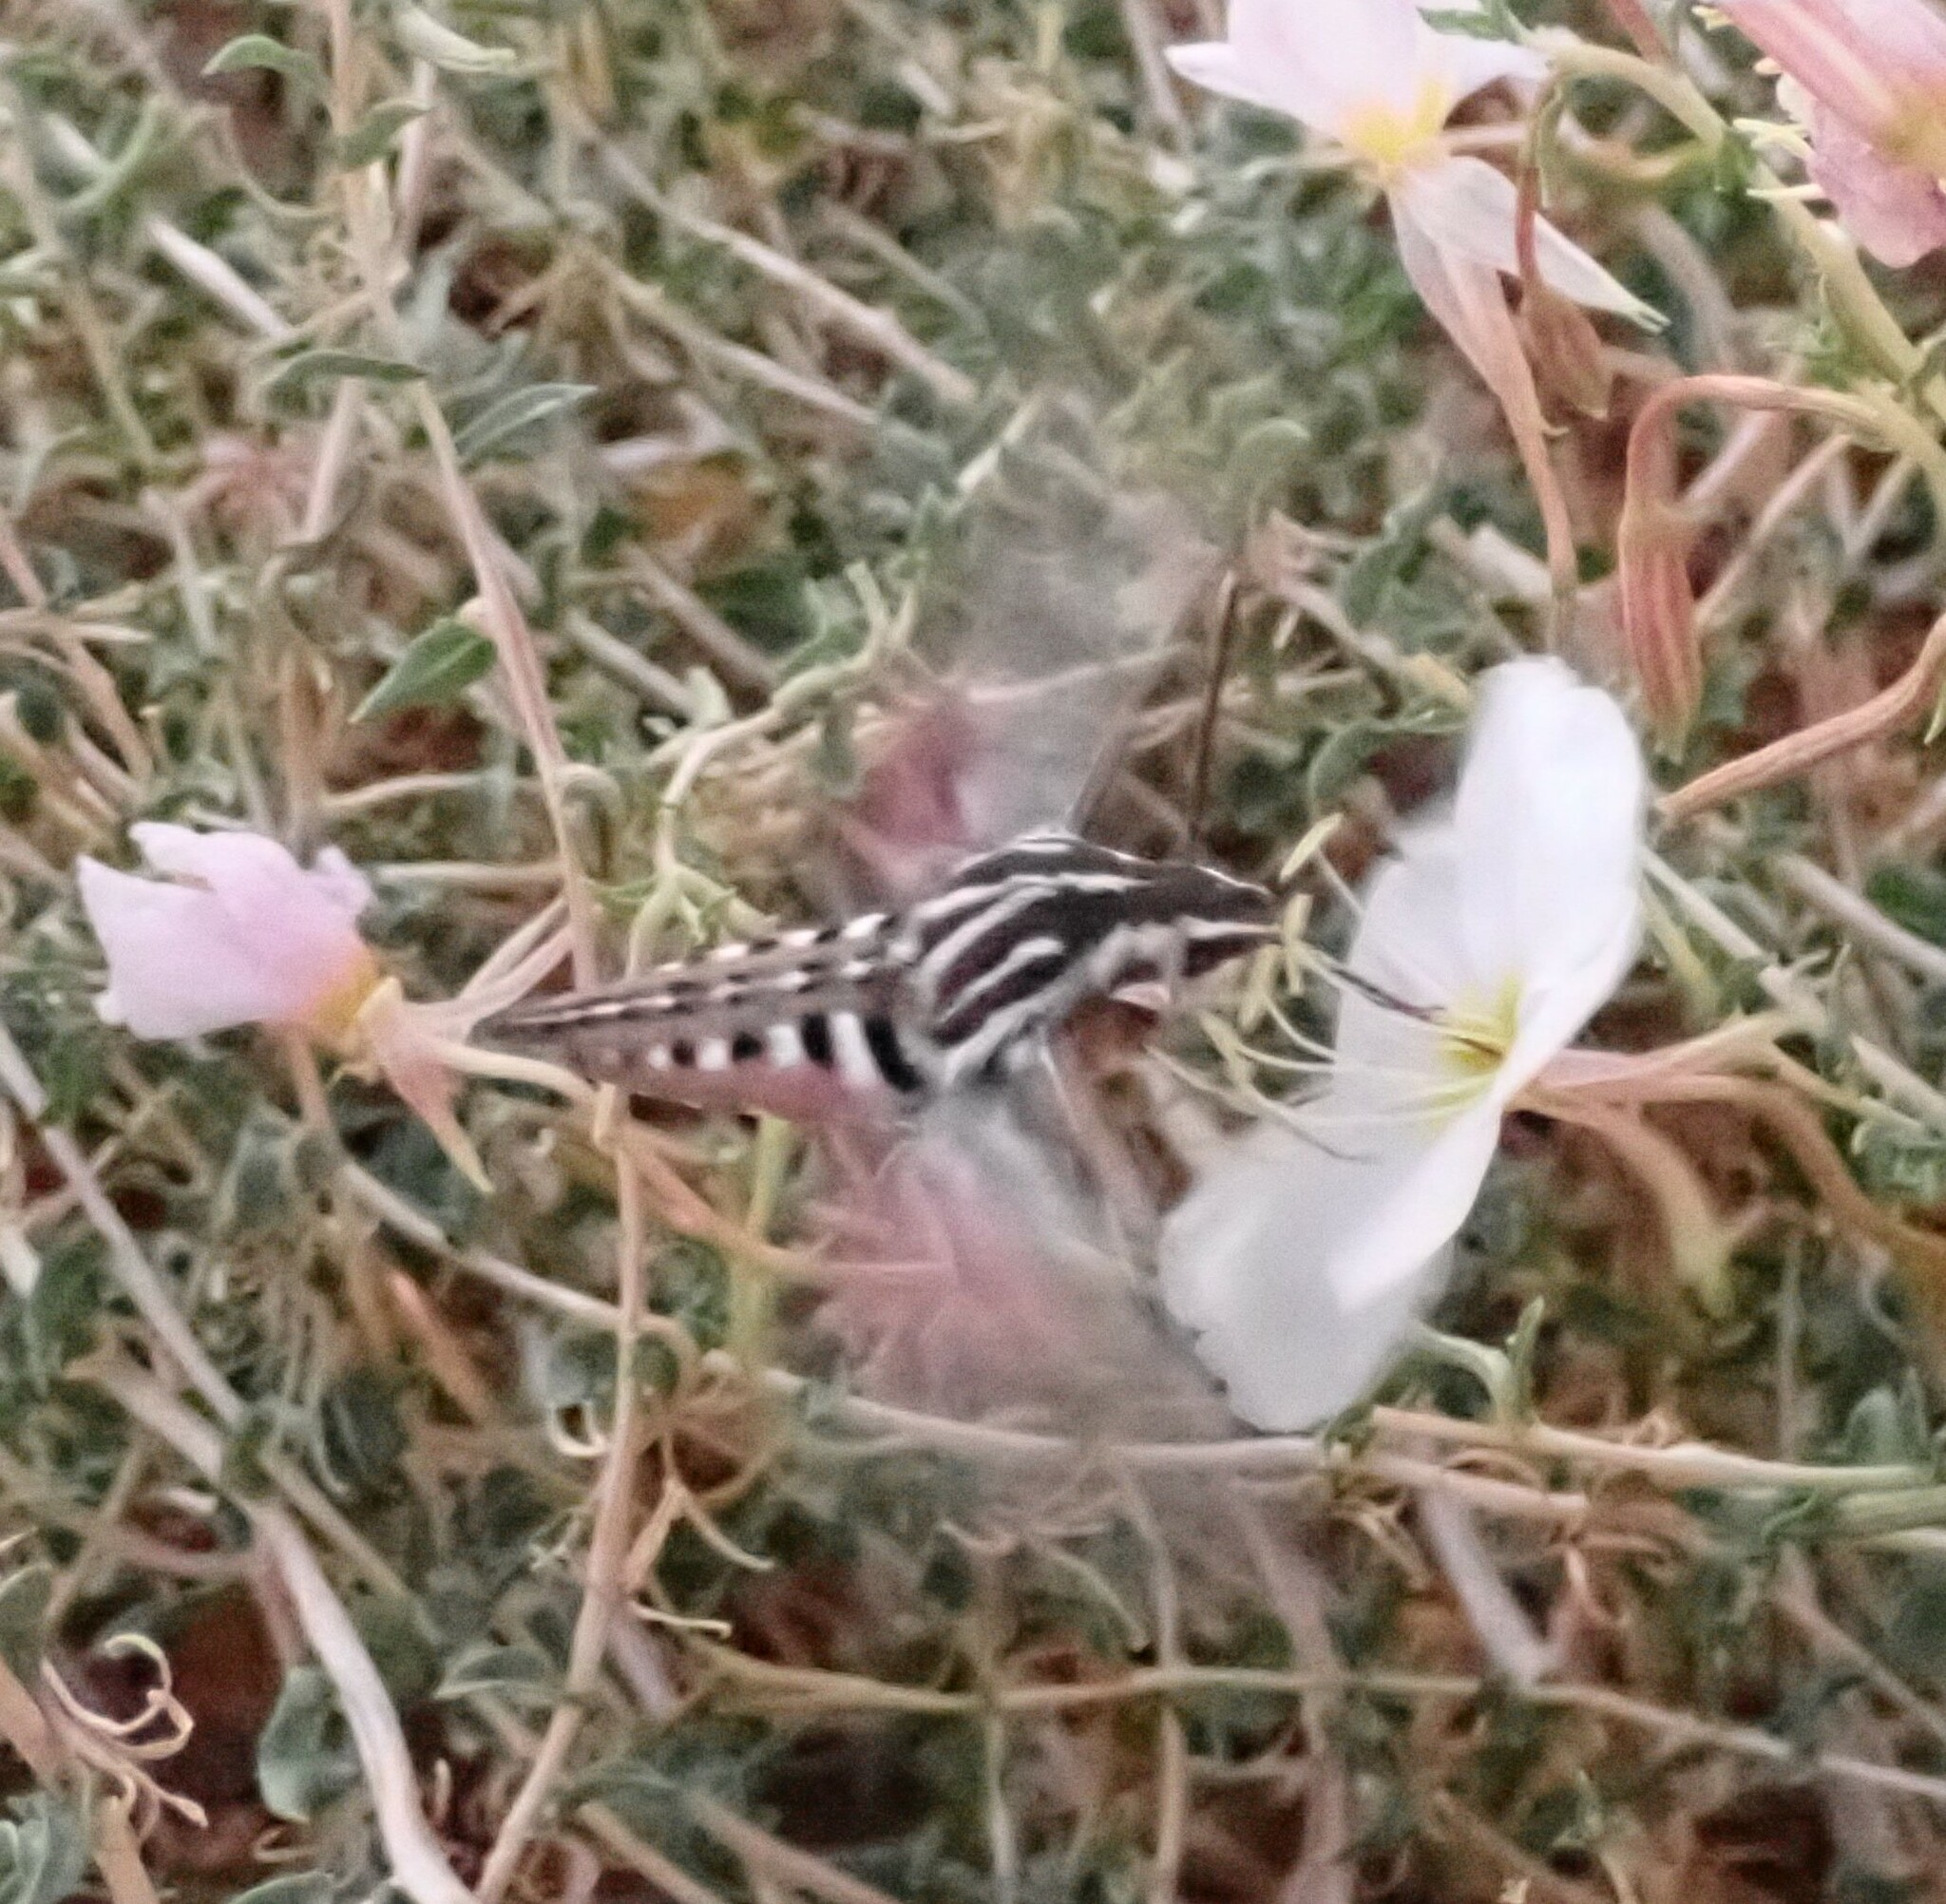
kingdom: Animalia
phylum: Arthropoda
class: Insecta
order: Lepidoptera
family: Sphingidae
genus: Hyles
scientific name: Hyles lineata
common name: White-lined sphinx
